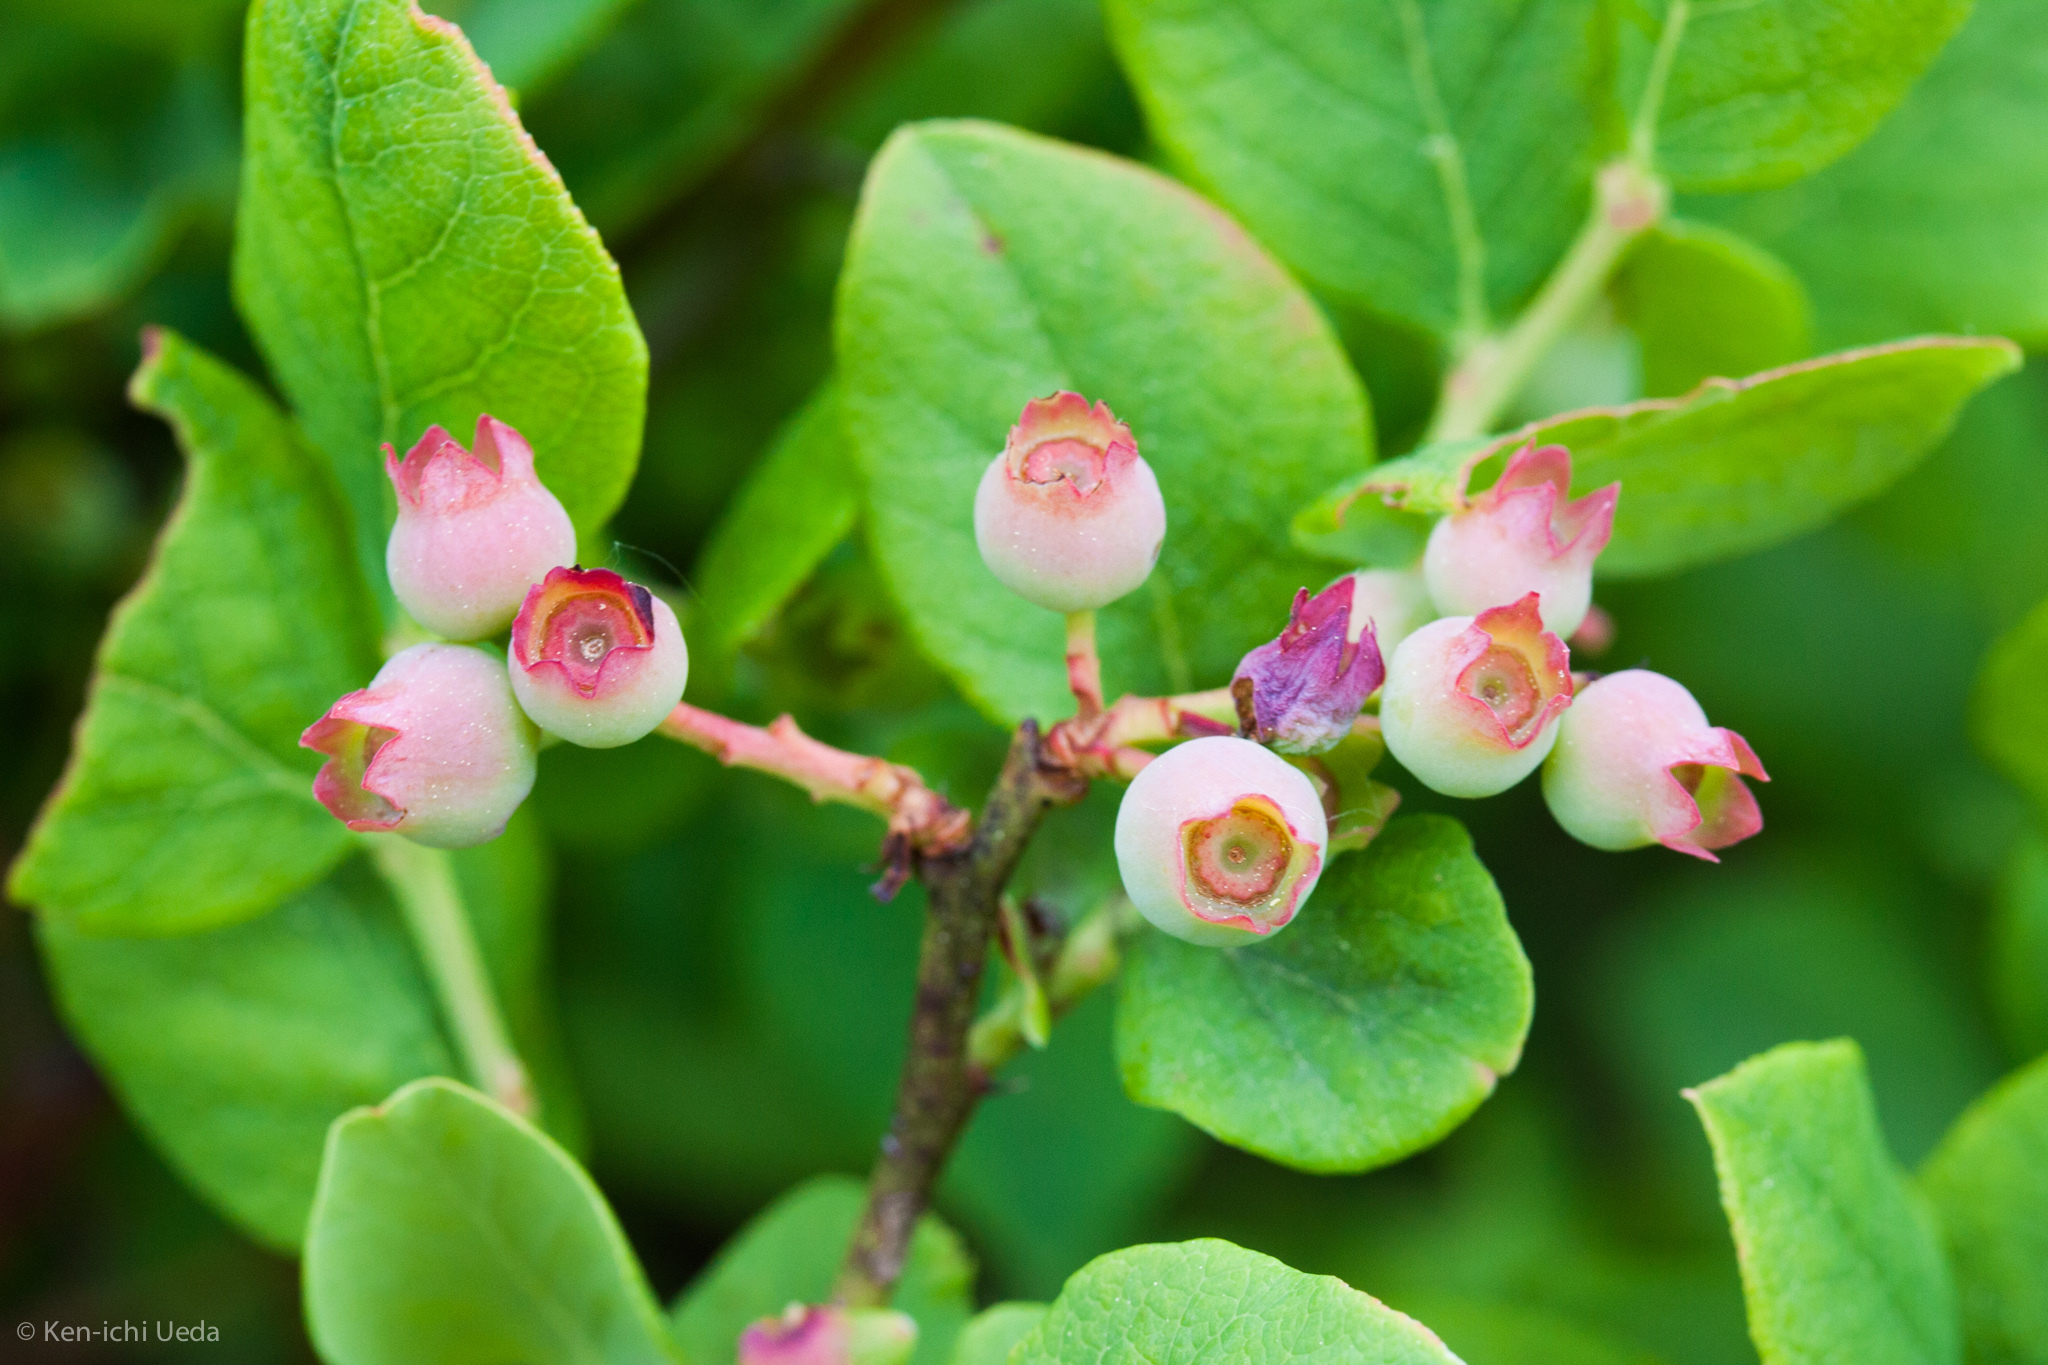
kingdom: Plantae
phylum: Tracheophyta
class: Magnoliopsida
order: Ericales
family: Ericaceae
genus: Vaccinium
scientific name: Vaccinium pallidum
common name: Blue ridge blueberry
